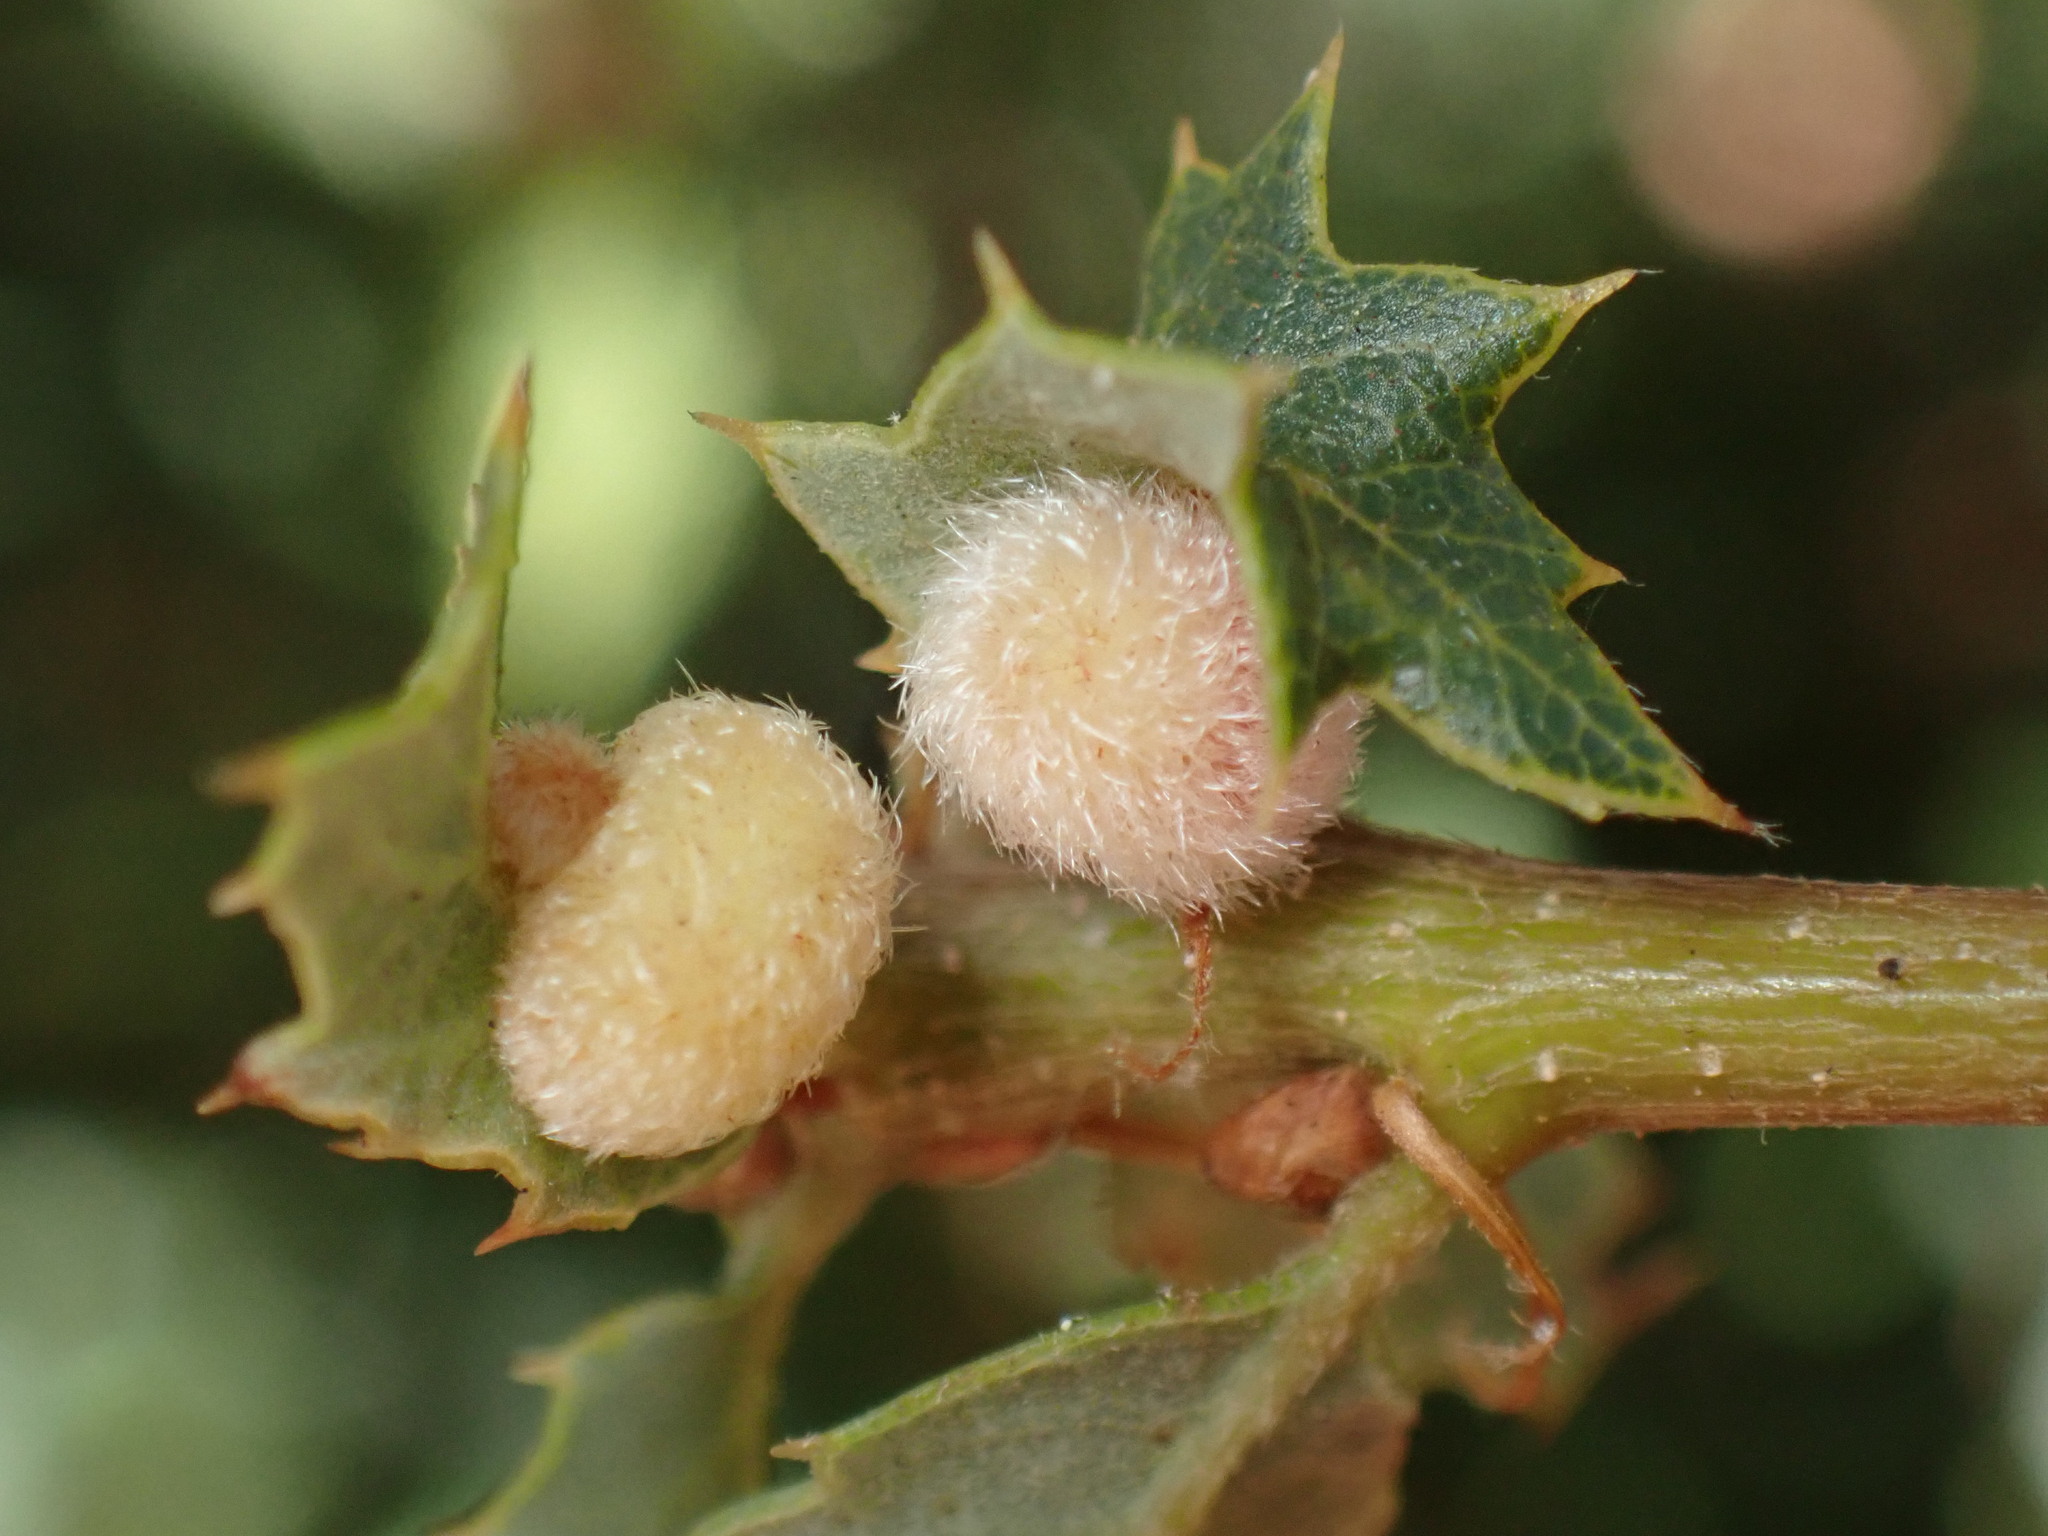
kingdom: Animalia
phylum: Arthropoda
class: Insecta
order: Hymenoptera
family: Cynipidae
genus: Atrusca
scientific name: Atrusca
